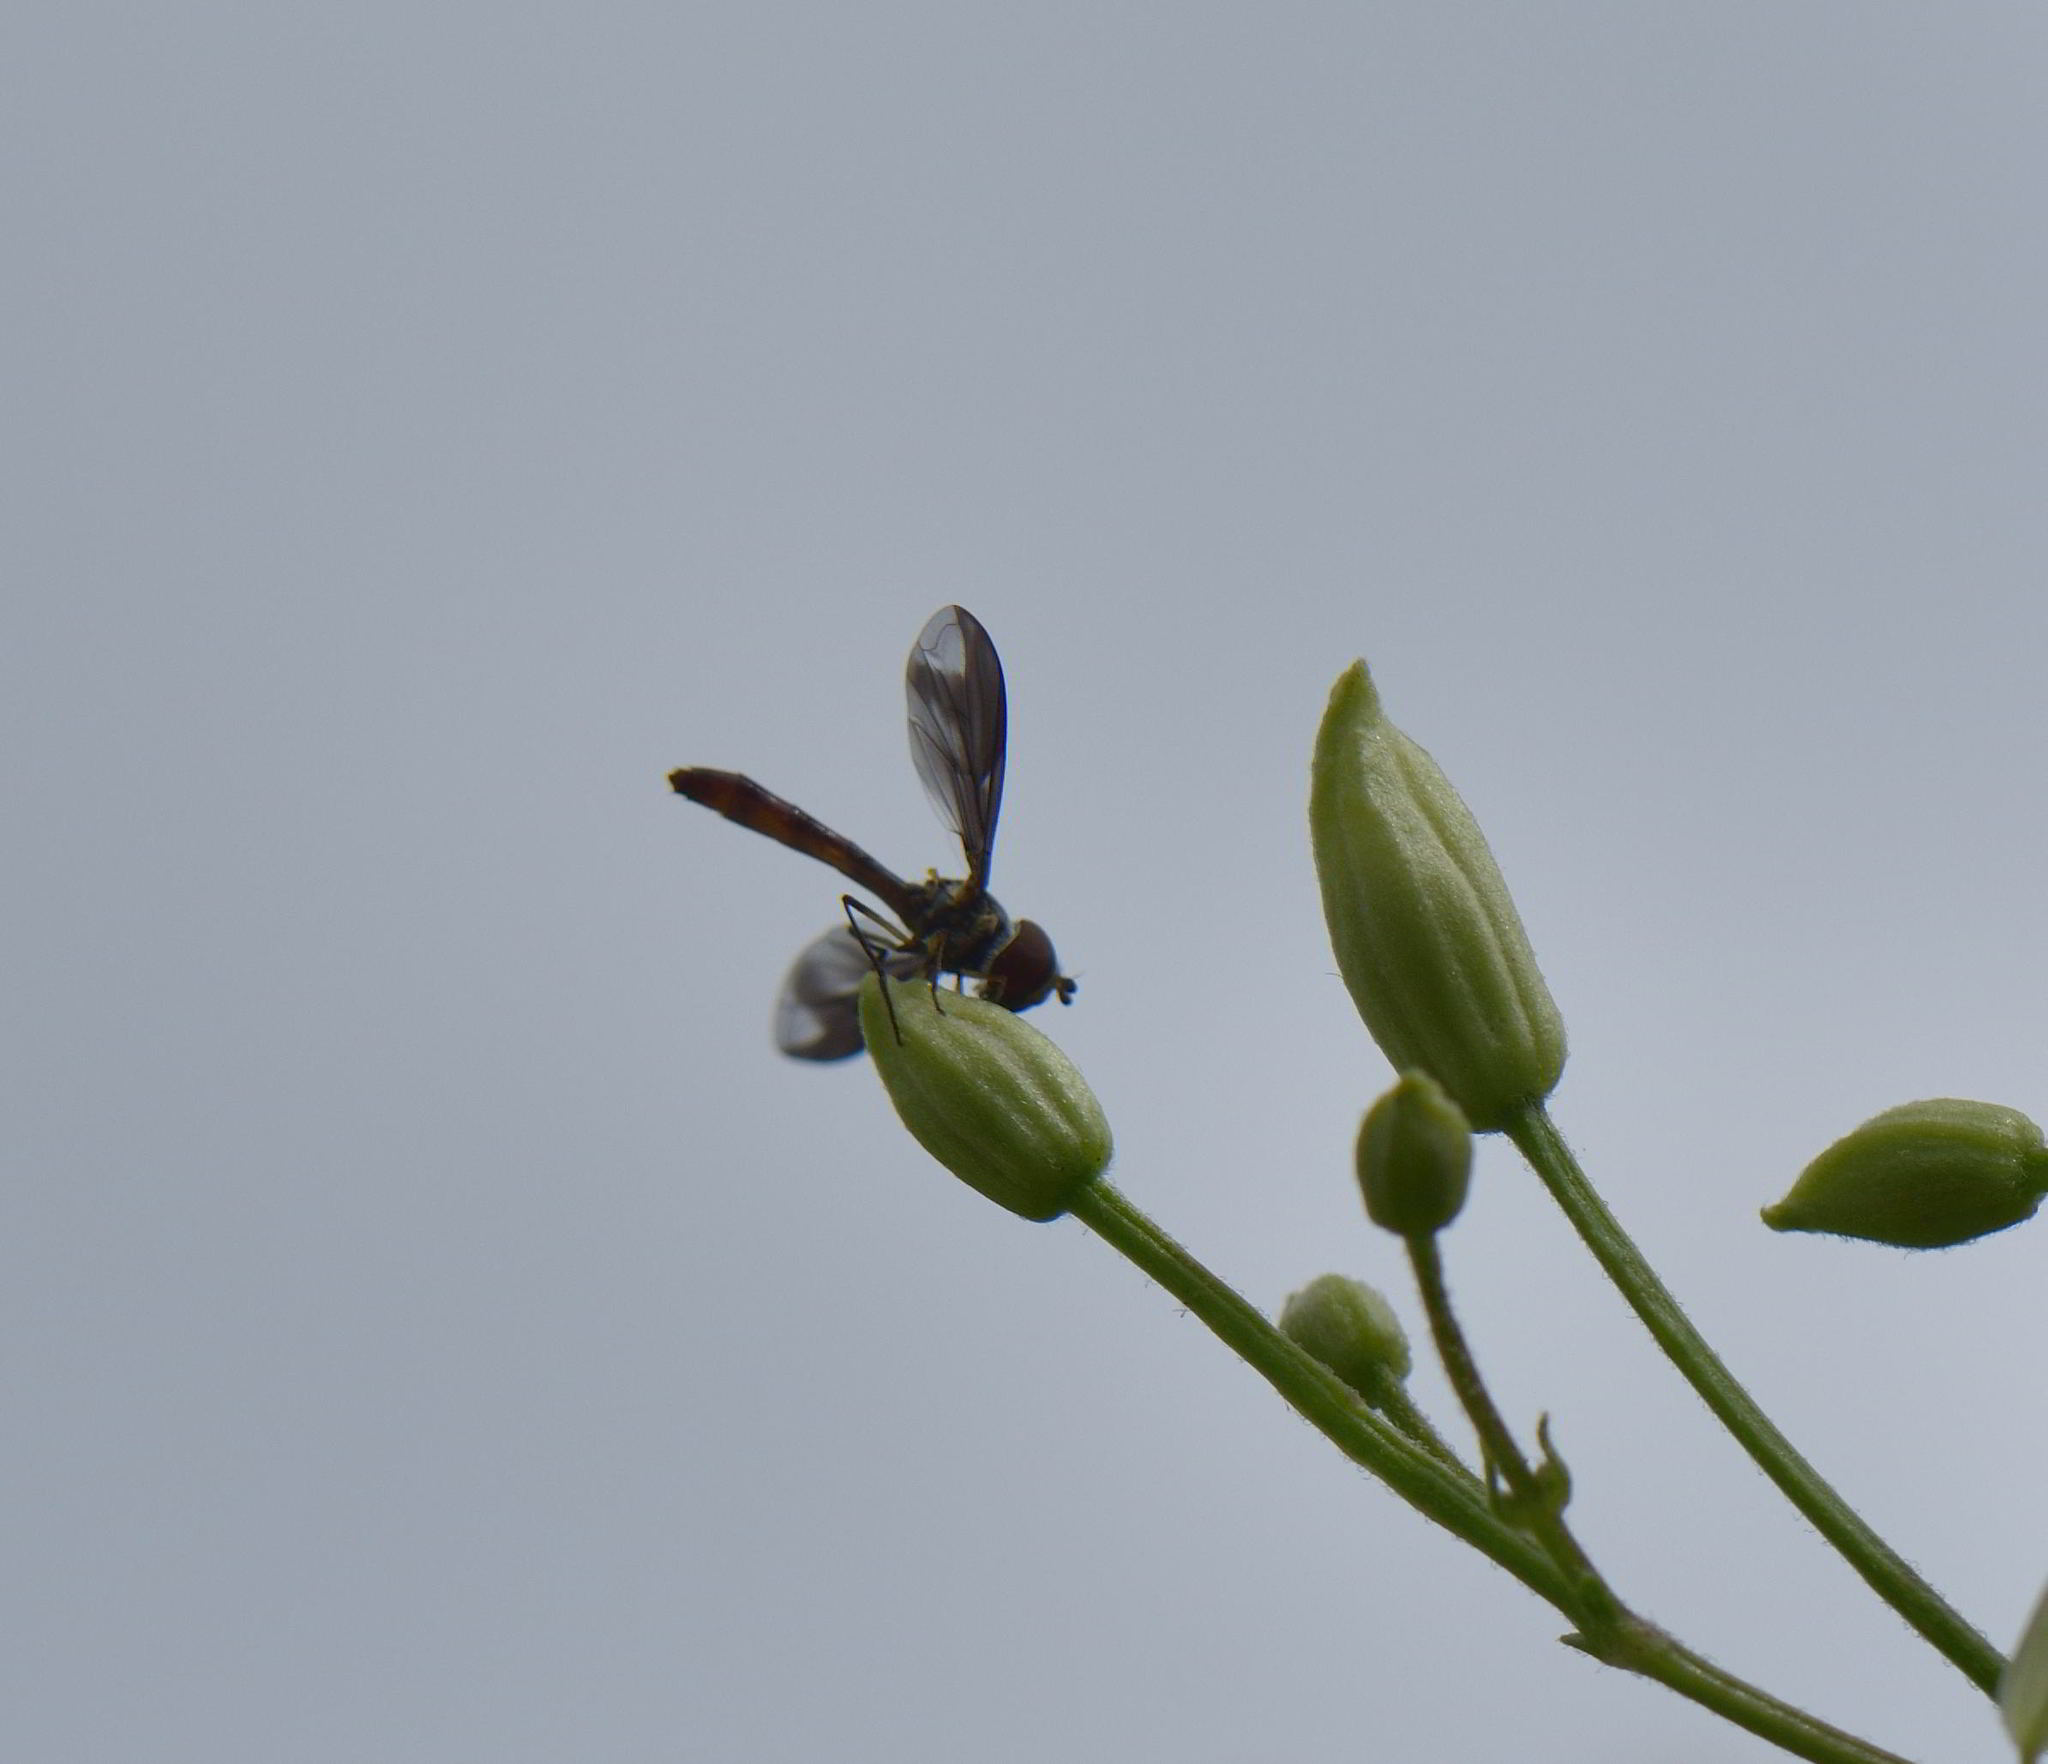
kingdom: Animalia
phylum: Arthropoda
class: Insecta
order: Diptera
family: Syrphidae
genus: Ocyptamus
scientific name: Ocyptamus fuscipennis
